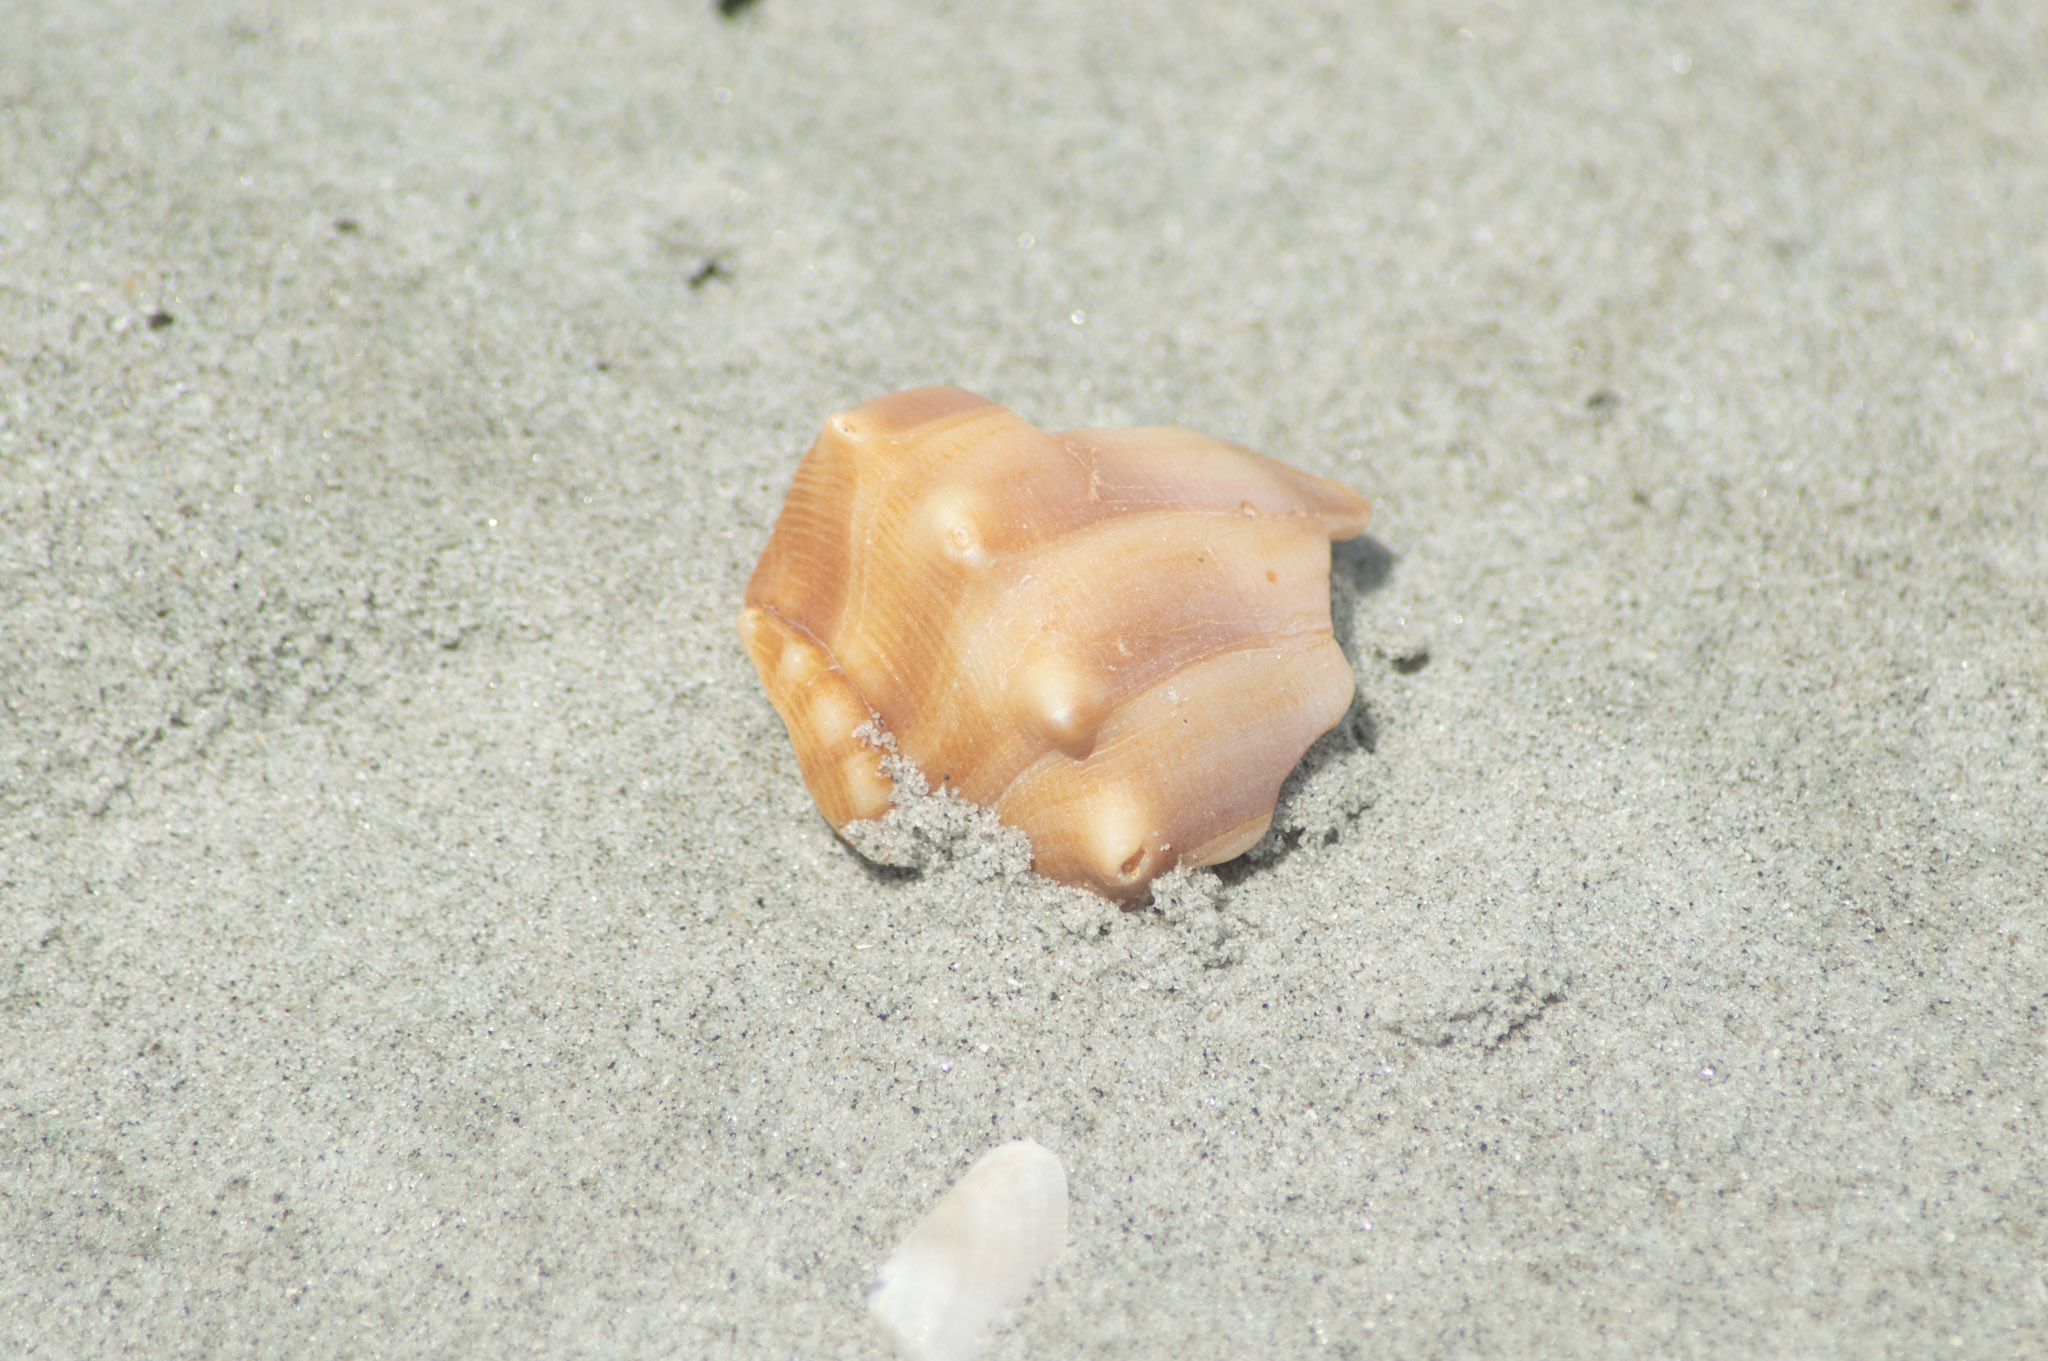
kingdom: Animalia
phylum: Mollusca
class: Gastropoda
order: Neogastropoda
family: Busyconidae
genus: Busycon
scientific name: Busycon carica
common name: Knobbed whelk
